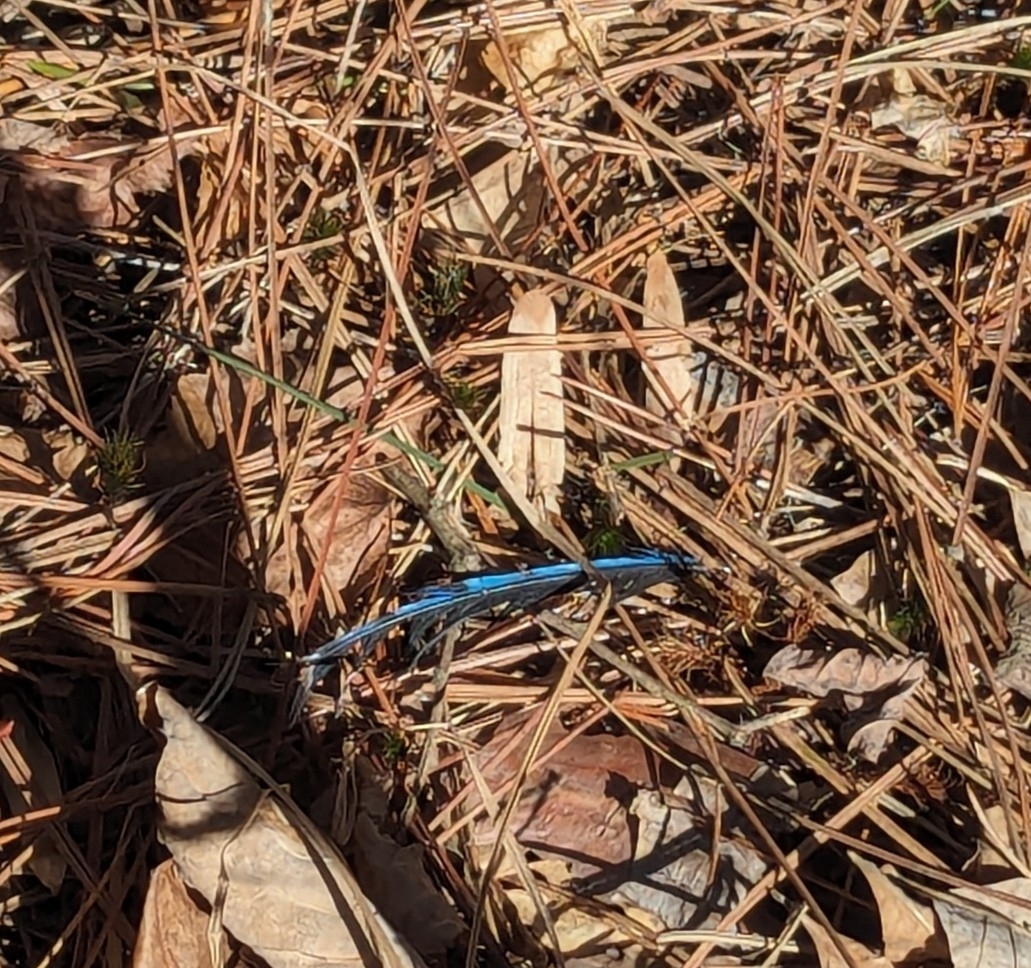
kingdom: Animalia
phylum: Chordata
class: Aves
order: Passeriformes
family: Corvidae
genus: Cyanocitta
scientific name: Cyanocitta cristata
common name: Blue jay
